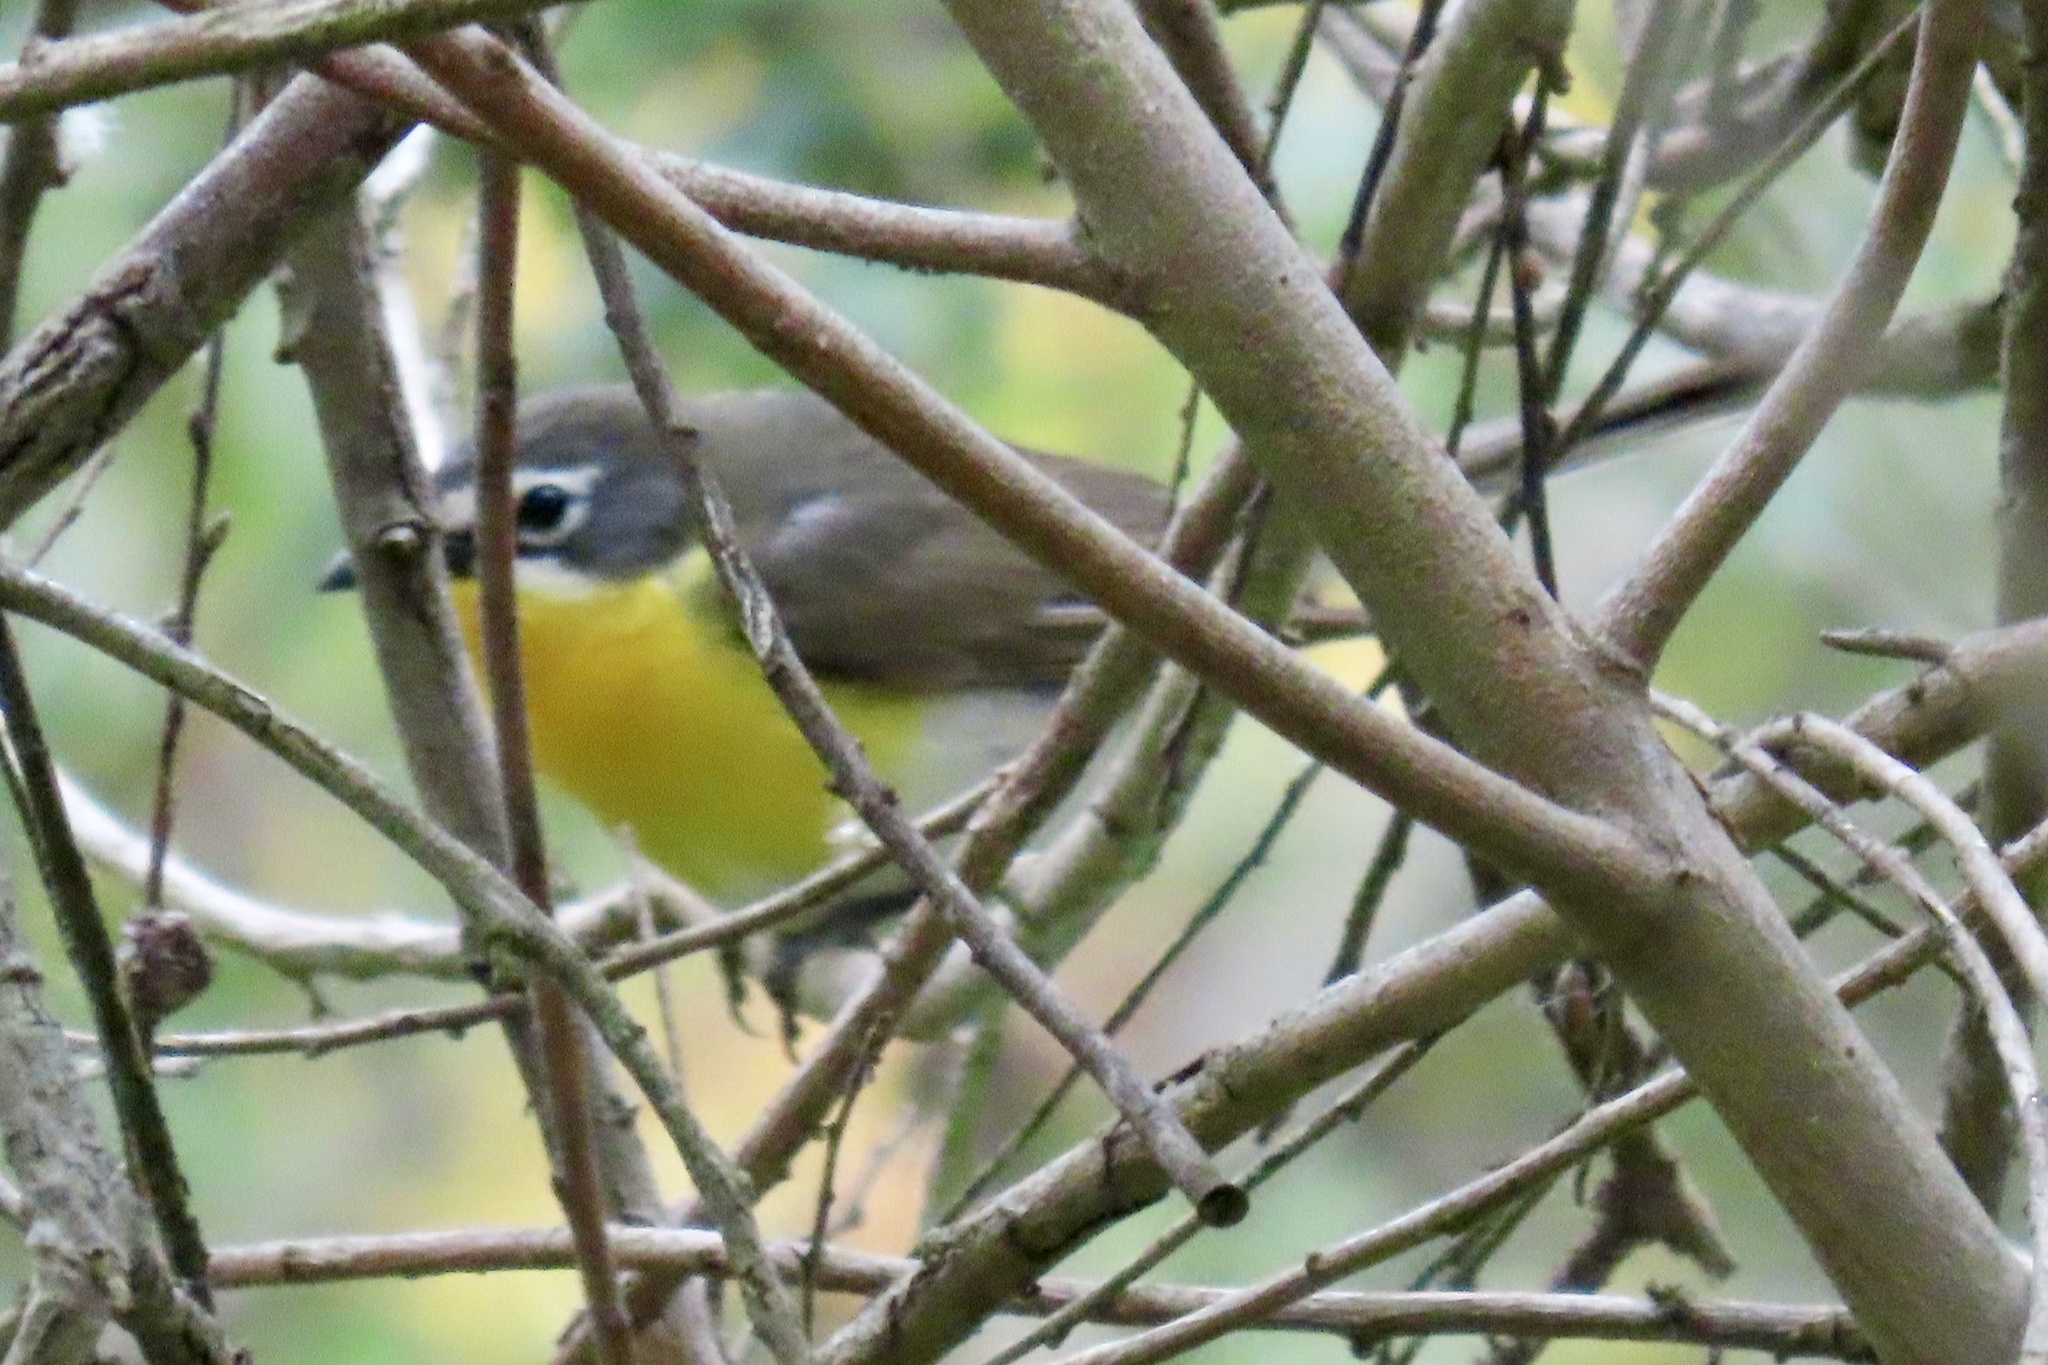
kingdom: Animalia
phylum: Chordata
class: Aves
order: Passeriformes
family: Parulidae
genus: Icteria
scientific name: Icteria virens
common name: Yellow-breasted chat
